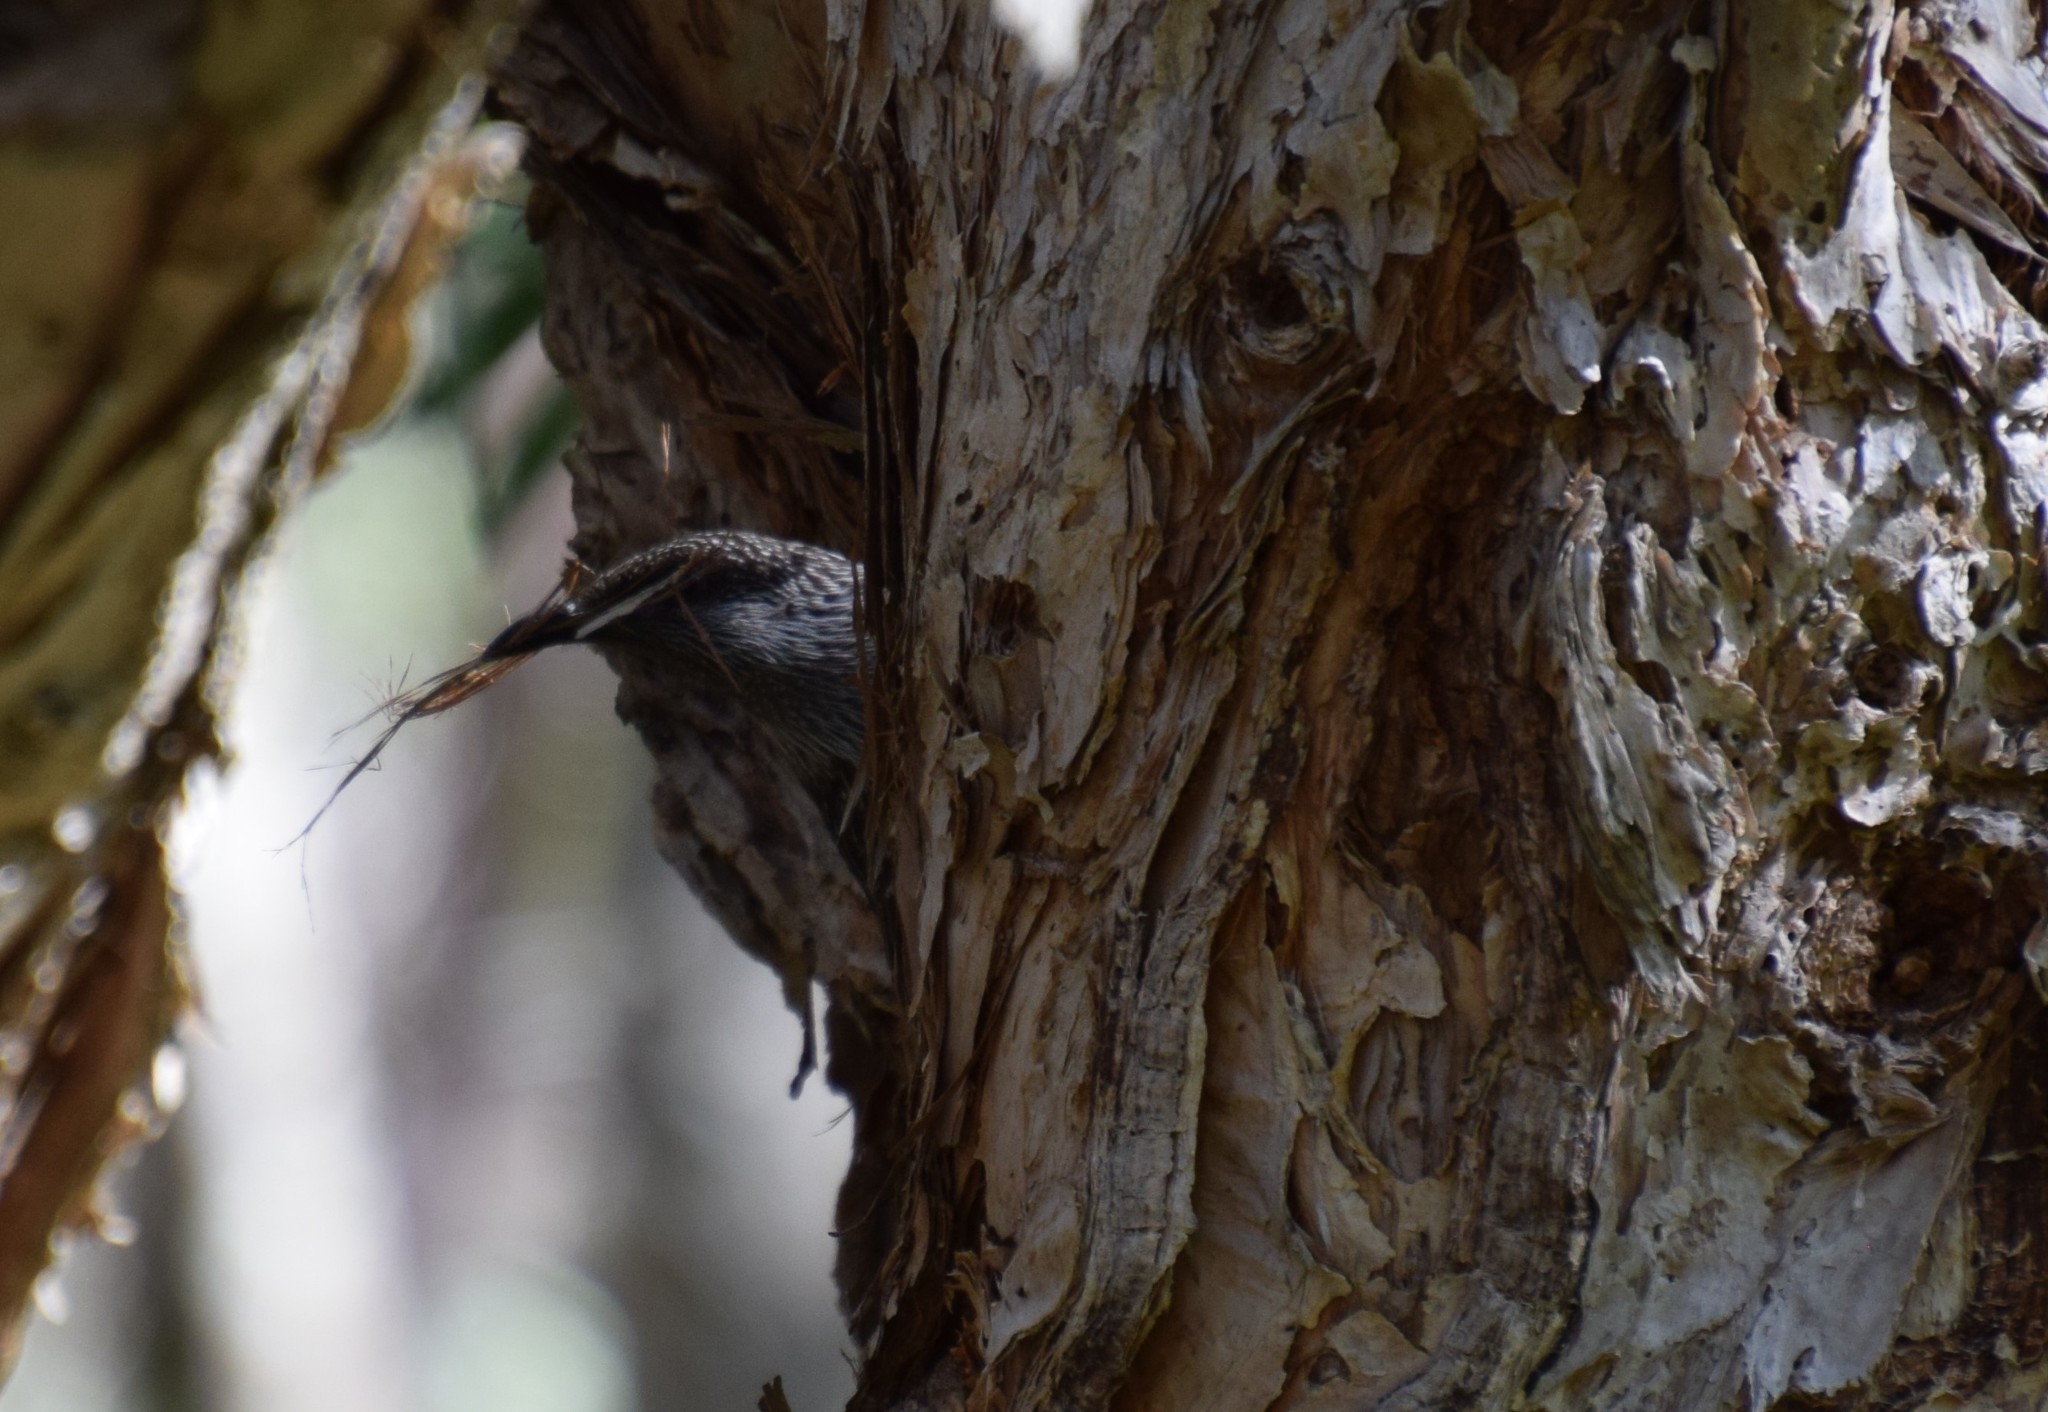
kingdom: Animalia
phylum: Chordata
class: Aves
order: Passeriformes
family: Meliphagidae
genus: Anthochaera
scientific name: Anthochaera chrysoptera
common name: Little wattlebird
